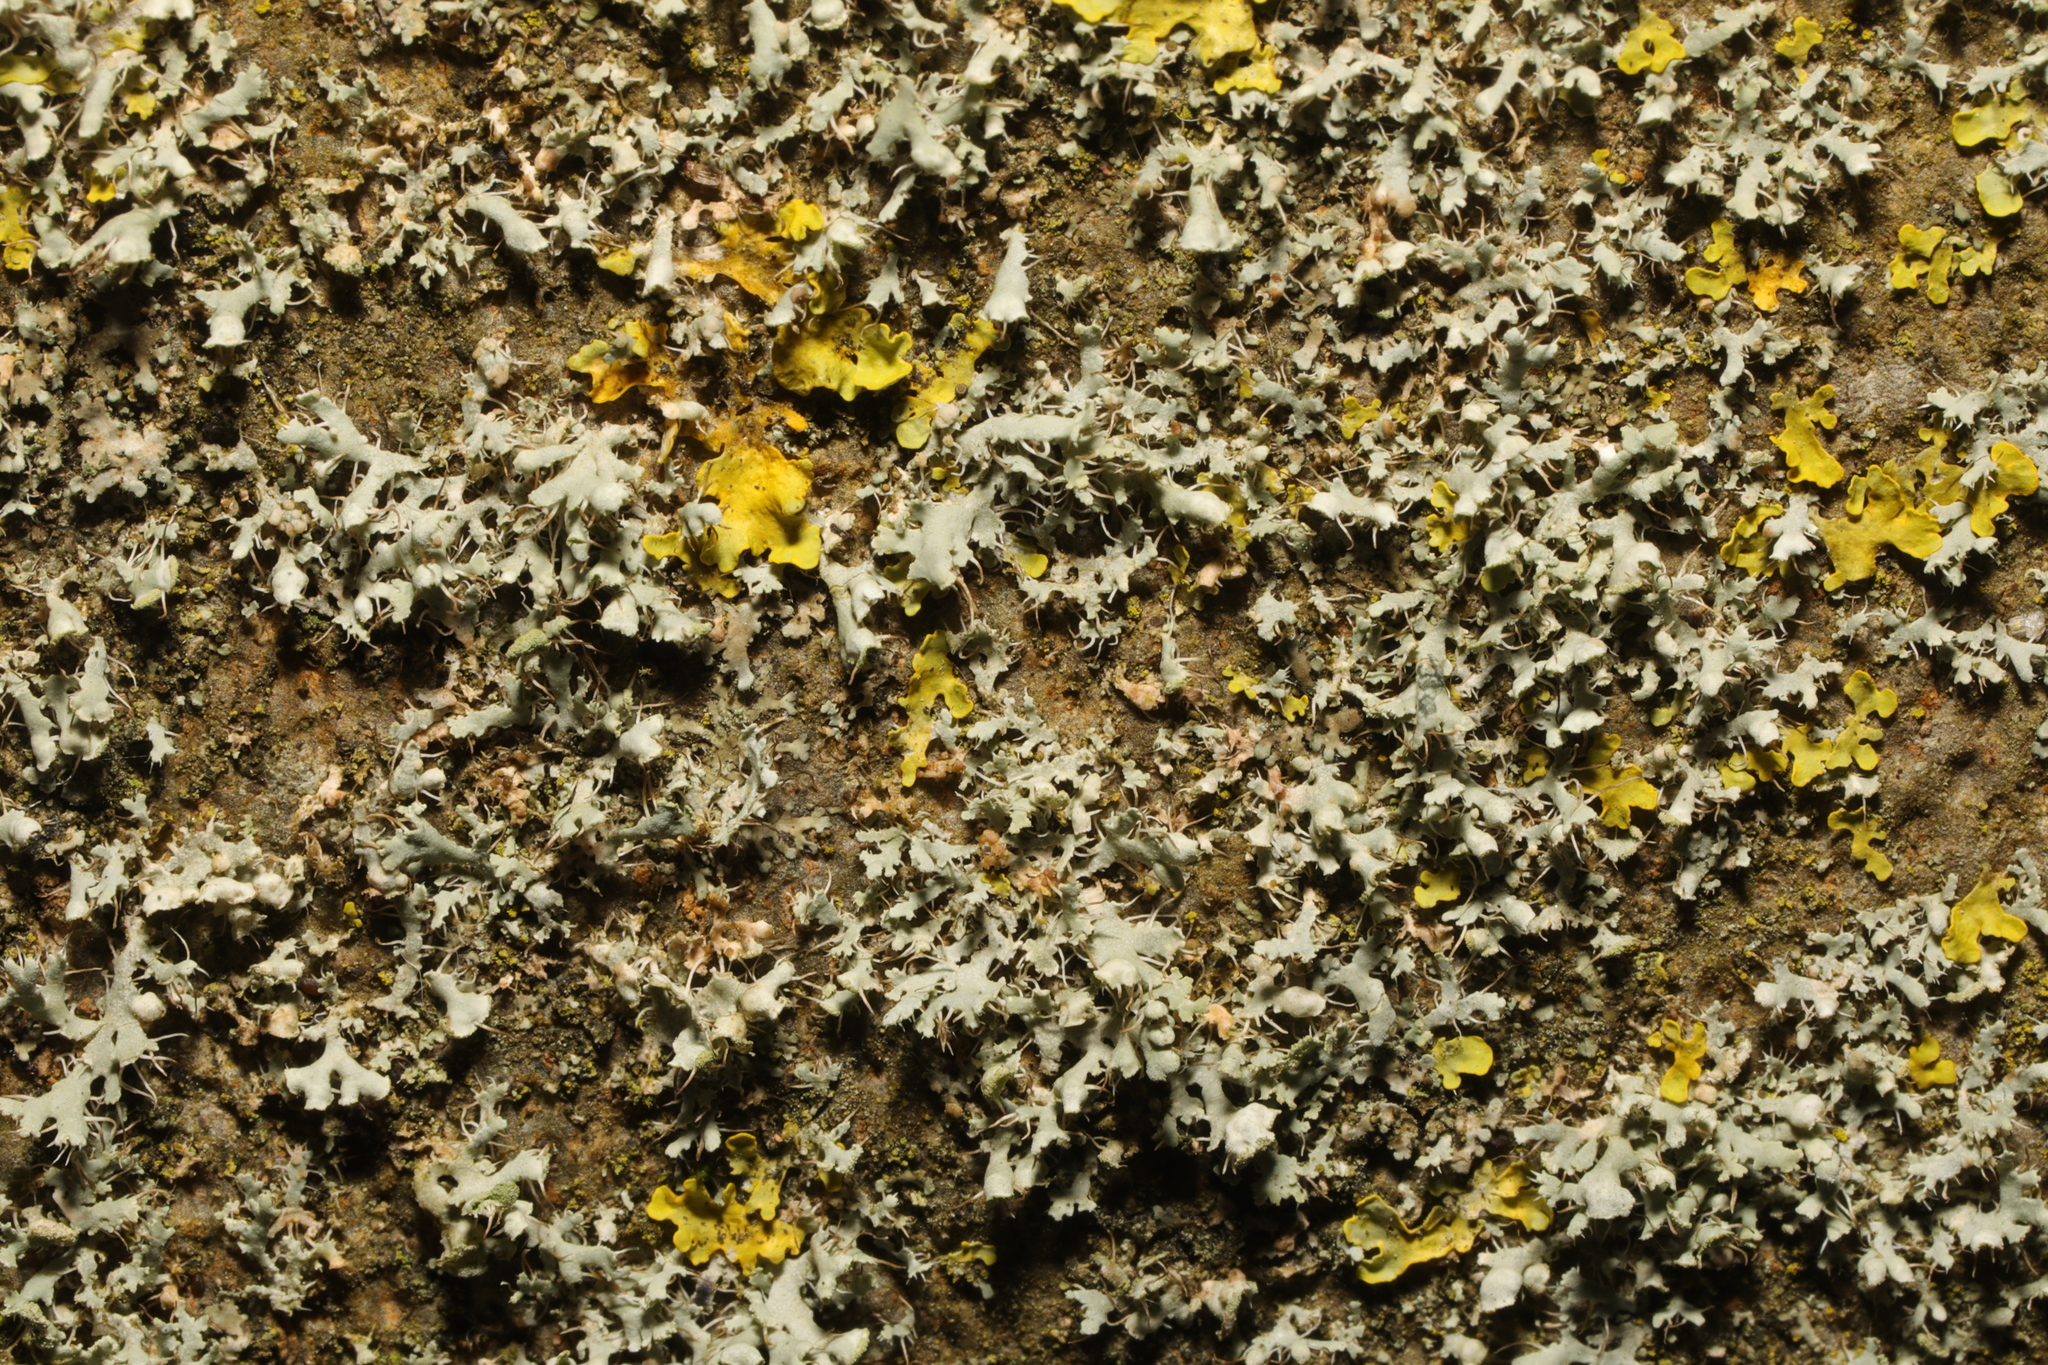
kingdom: Fungi
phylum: Ascomycota
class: Lecanoromycetes
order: Caliciales
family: Physciaceae
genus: Physcia
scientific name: Physcia adscendens
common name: Hooded rosette lichen
